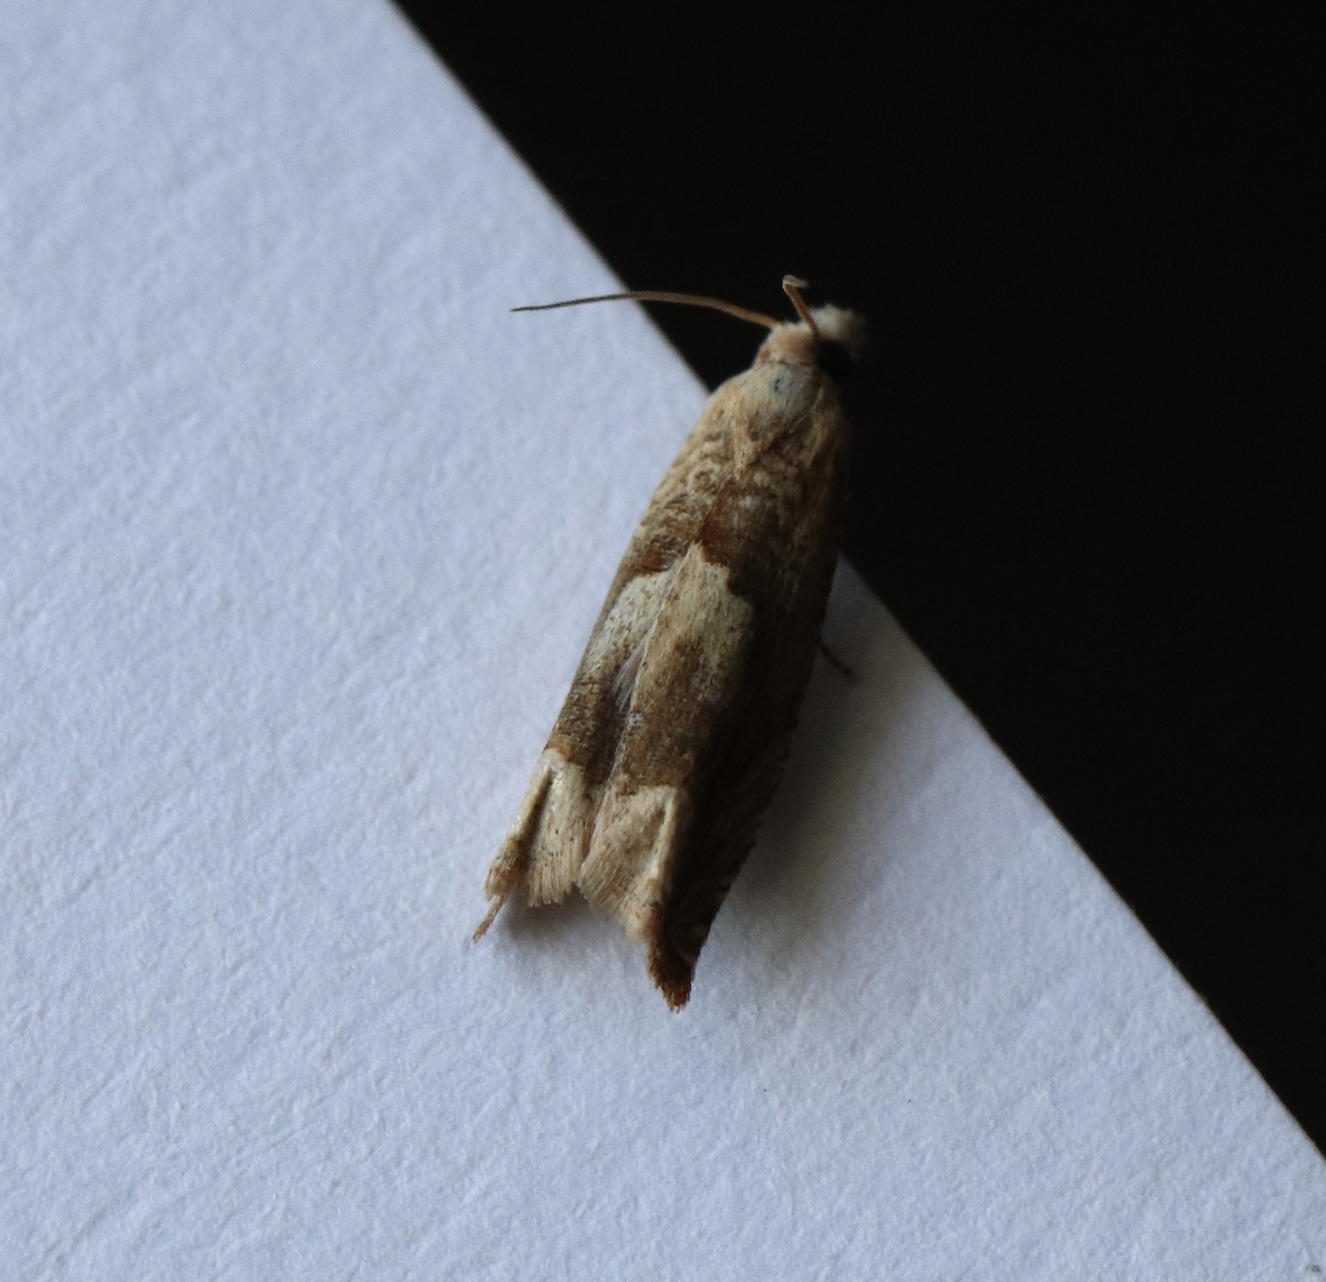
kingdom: Animalia
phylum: Arthropoda
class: Insecta
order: Lepidoptera
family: Tortricidae
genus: Eucosma
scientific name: Eucosma conterminana
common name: Pale lettuce bell
